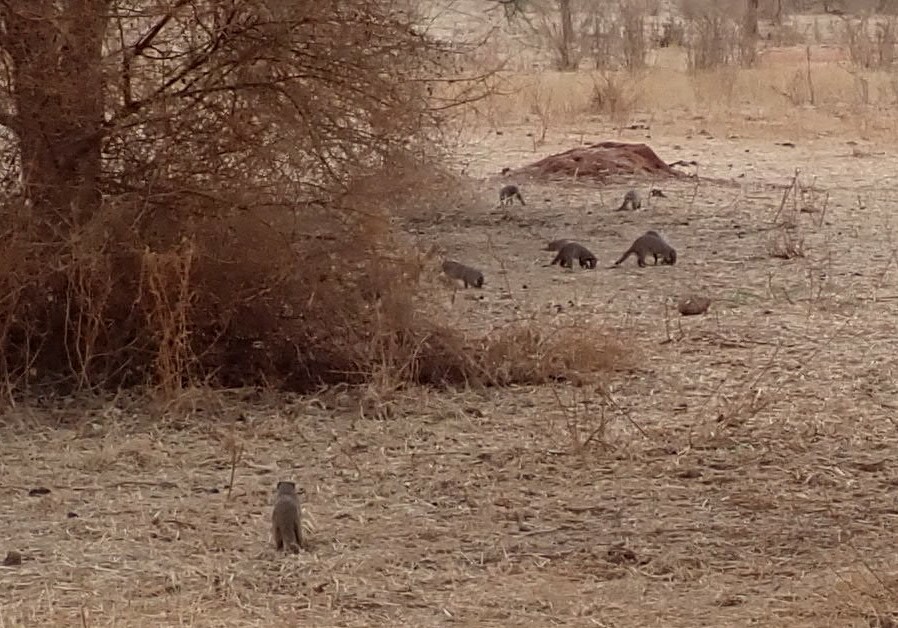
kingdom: Animalia
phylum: Chordata
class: Mammalia
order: Carnivora
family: Herpestidae
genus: Mungos
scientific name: Mungos mungo
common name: Banded mongoose
